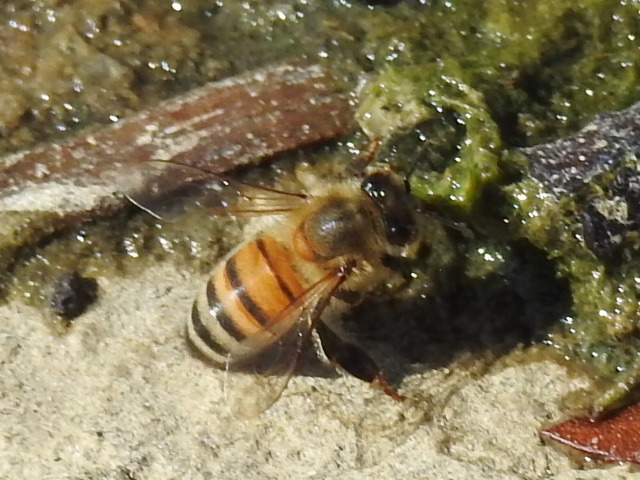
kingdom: Animalia
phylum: Arthropoda
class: Insecta
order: Hymenoptera
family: Apidae
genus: Apis
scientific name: Apis mellifera
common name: Honey bee
